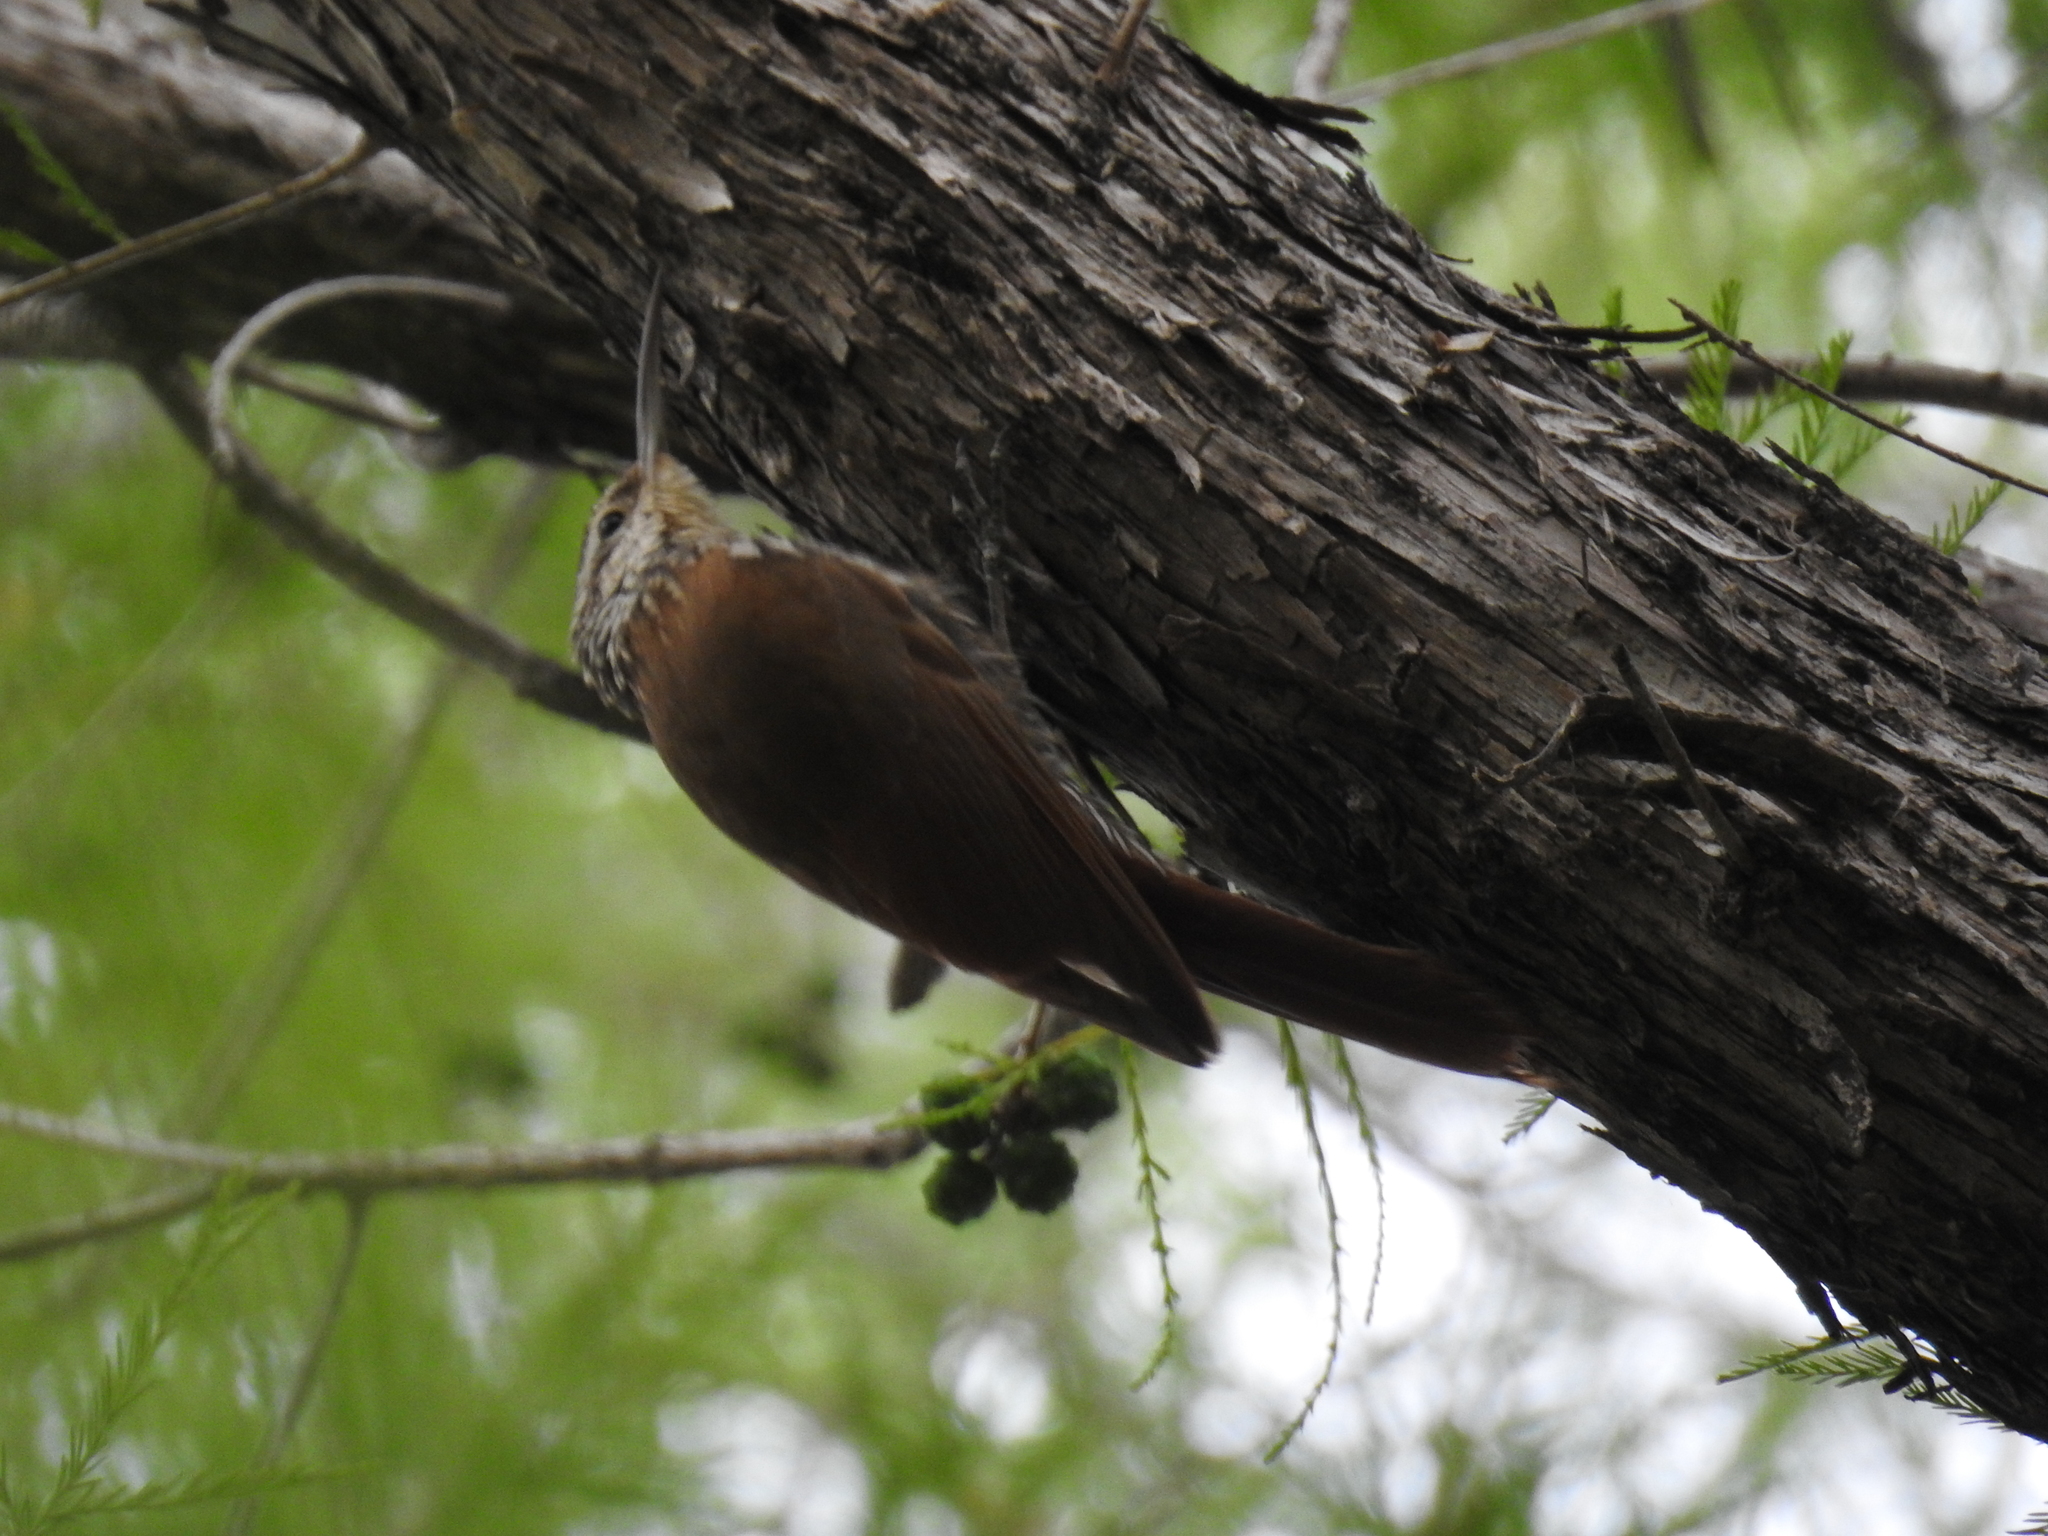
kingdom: Animalia
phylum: Chordata
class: Aves
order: Passeriformes
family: Furnariidae
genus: Lepidocolaptes
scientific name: Lepidocolaptes leucogaster
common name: White-striped woodcreeper
